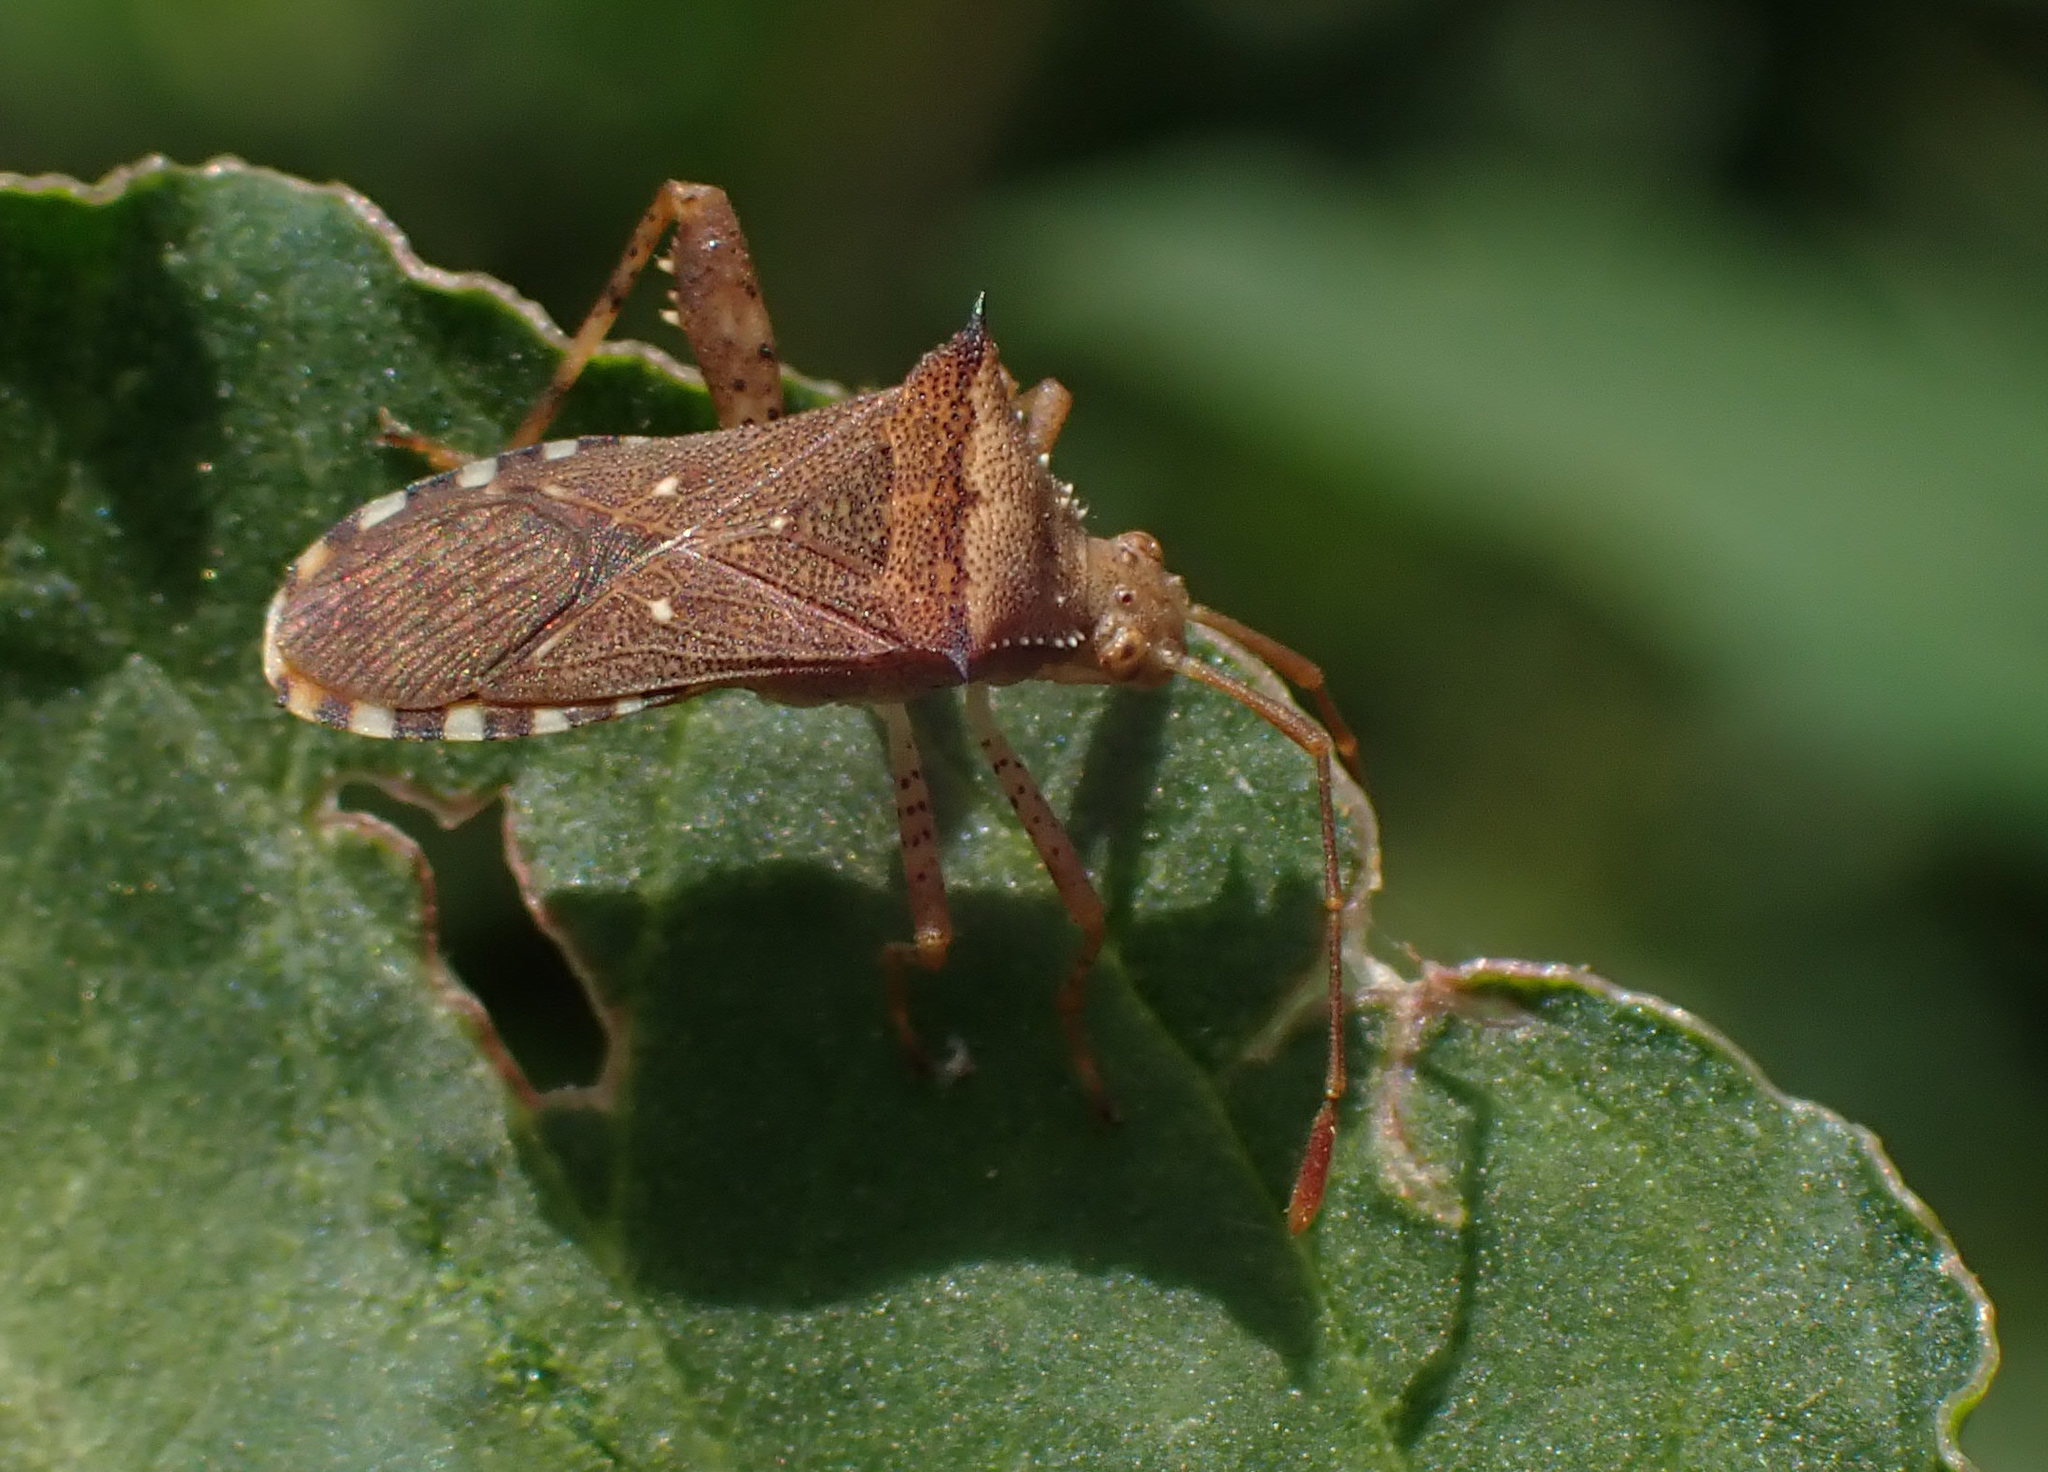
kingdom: Animalia
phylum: Arthropoda
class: Insecta
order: Hemiptera
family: Coreidae
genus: Zicca
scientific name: Zicca taeniola
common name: Leaf-footed bug
